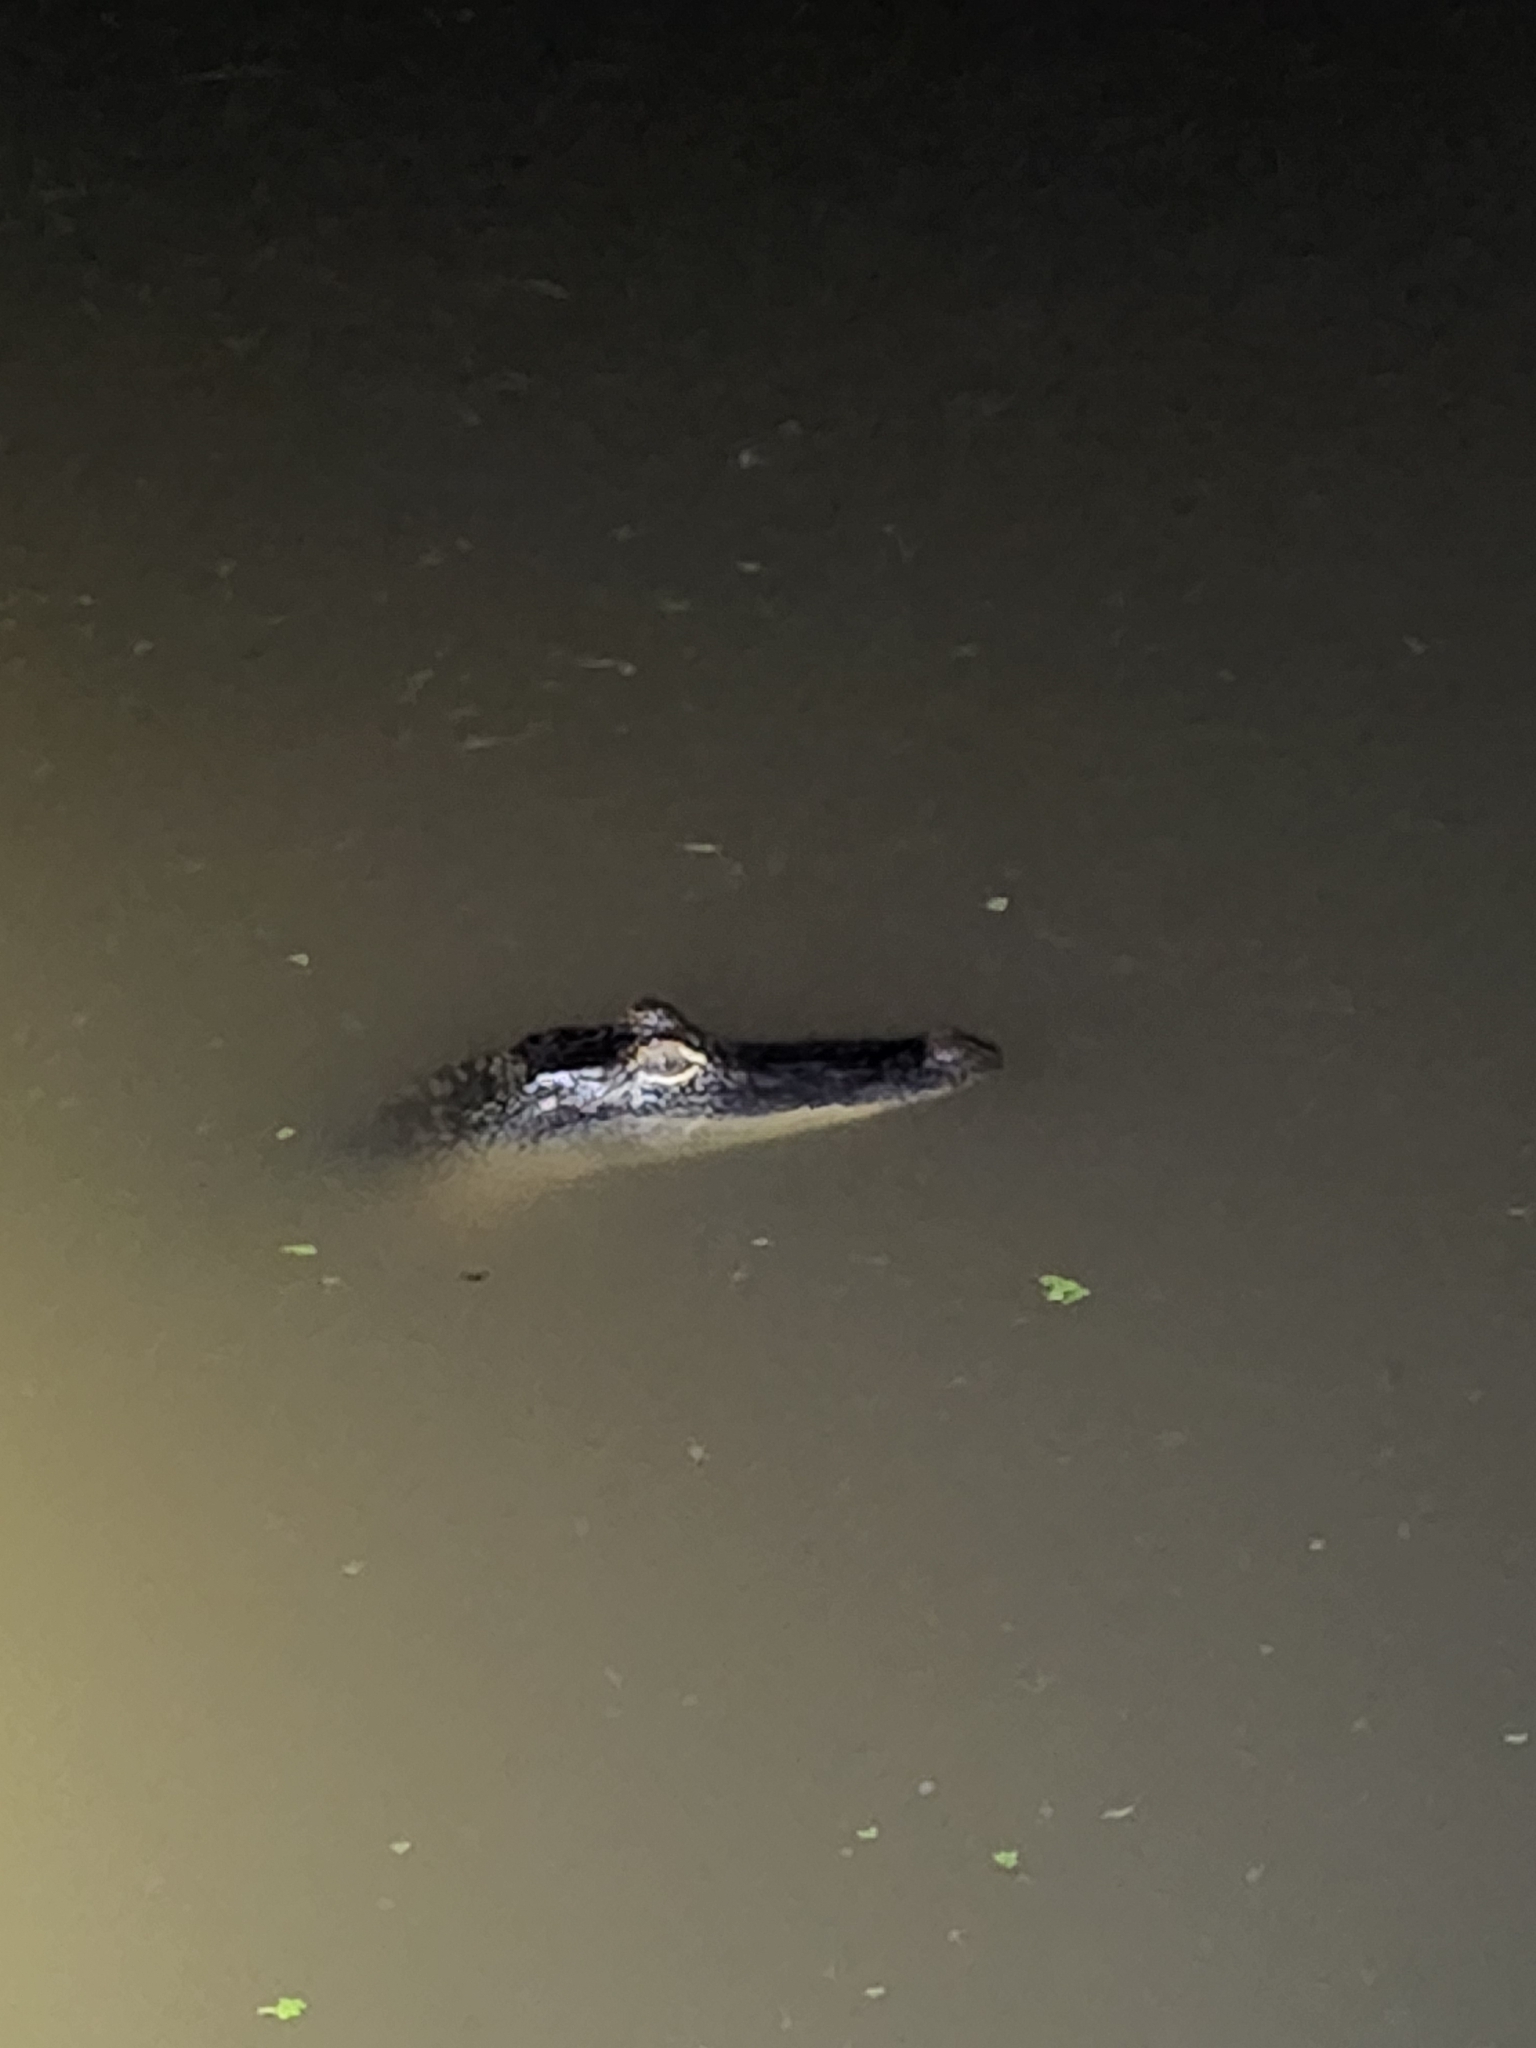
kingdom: Animalia
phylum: Chordata
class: Crocodylia
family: Alligatoridae
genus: Alligator
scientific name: Alligator mississippiensis
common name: American alligator
